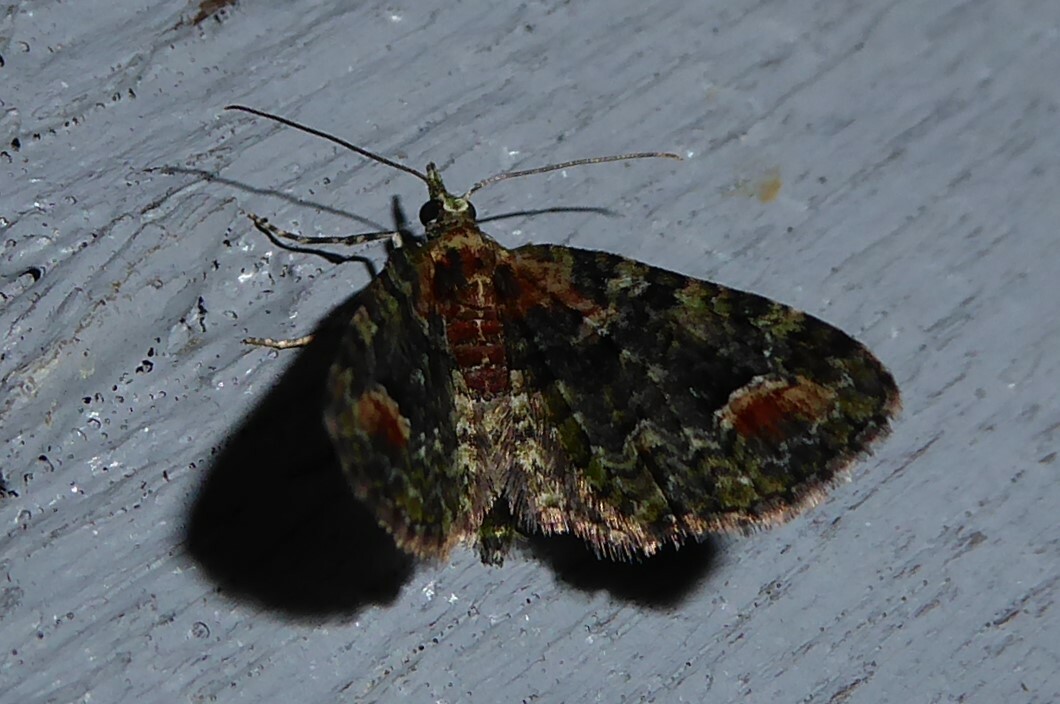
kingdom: Animalia
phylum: Arthropoda
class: Insecta
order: Lepidoptera
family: Geometridae
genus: Idaea
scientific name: Idaea mutanda
